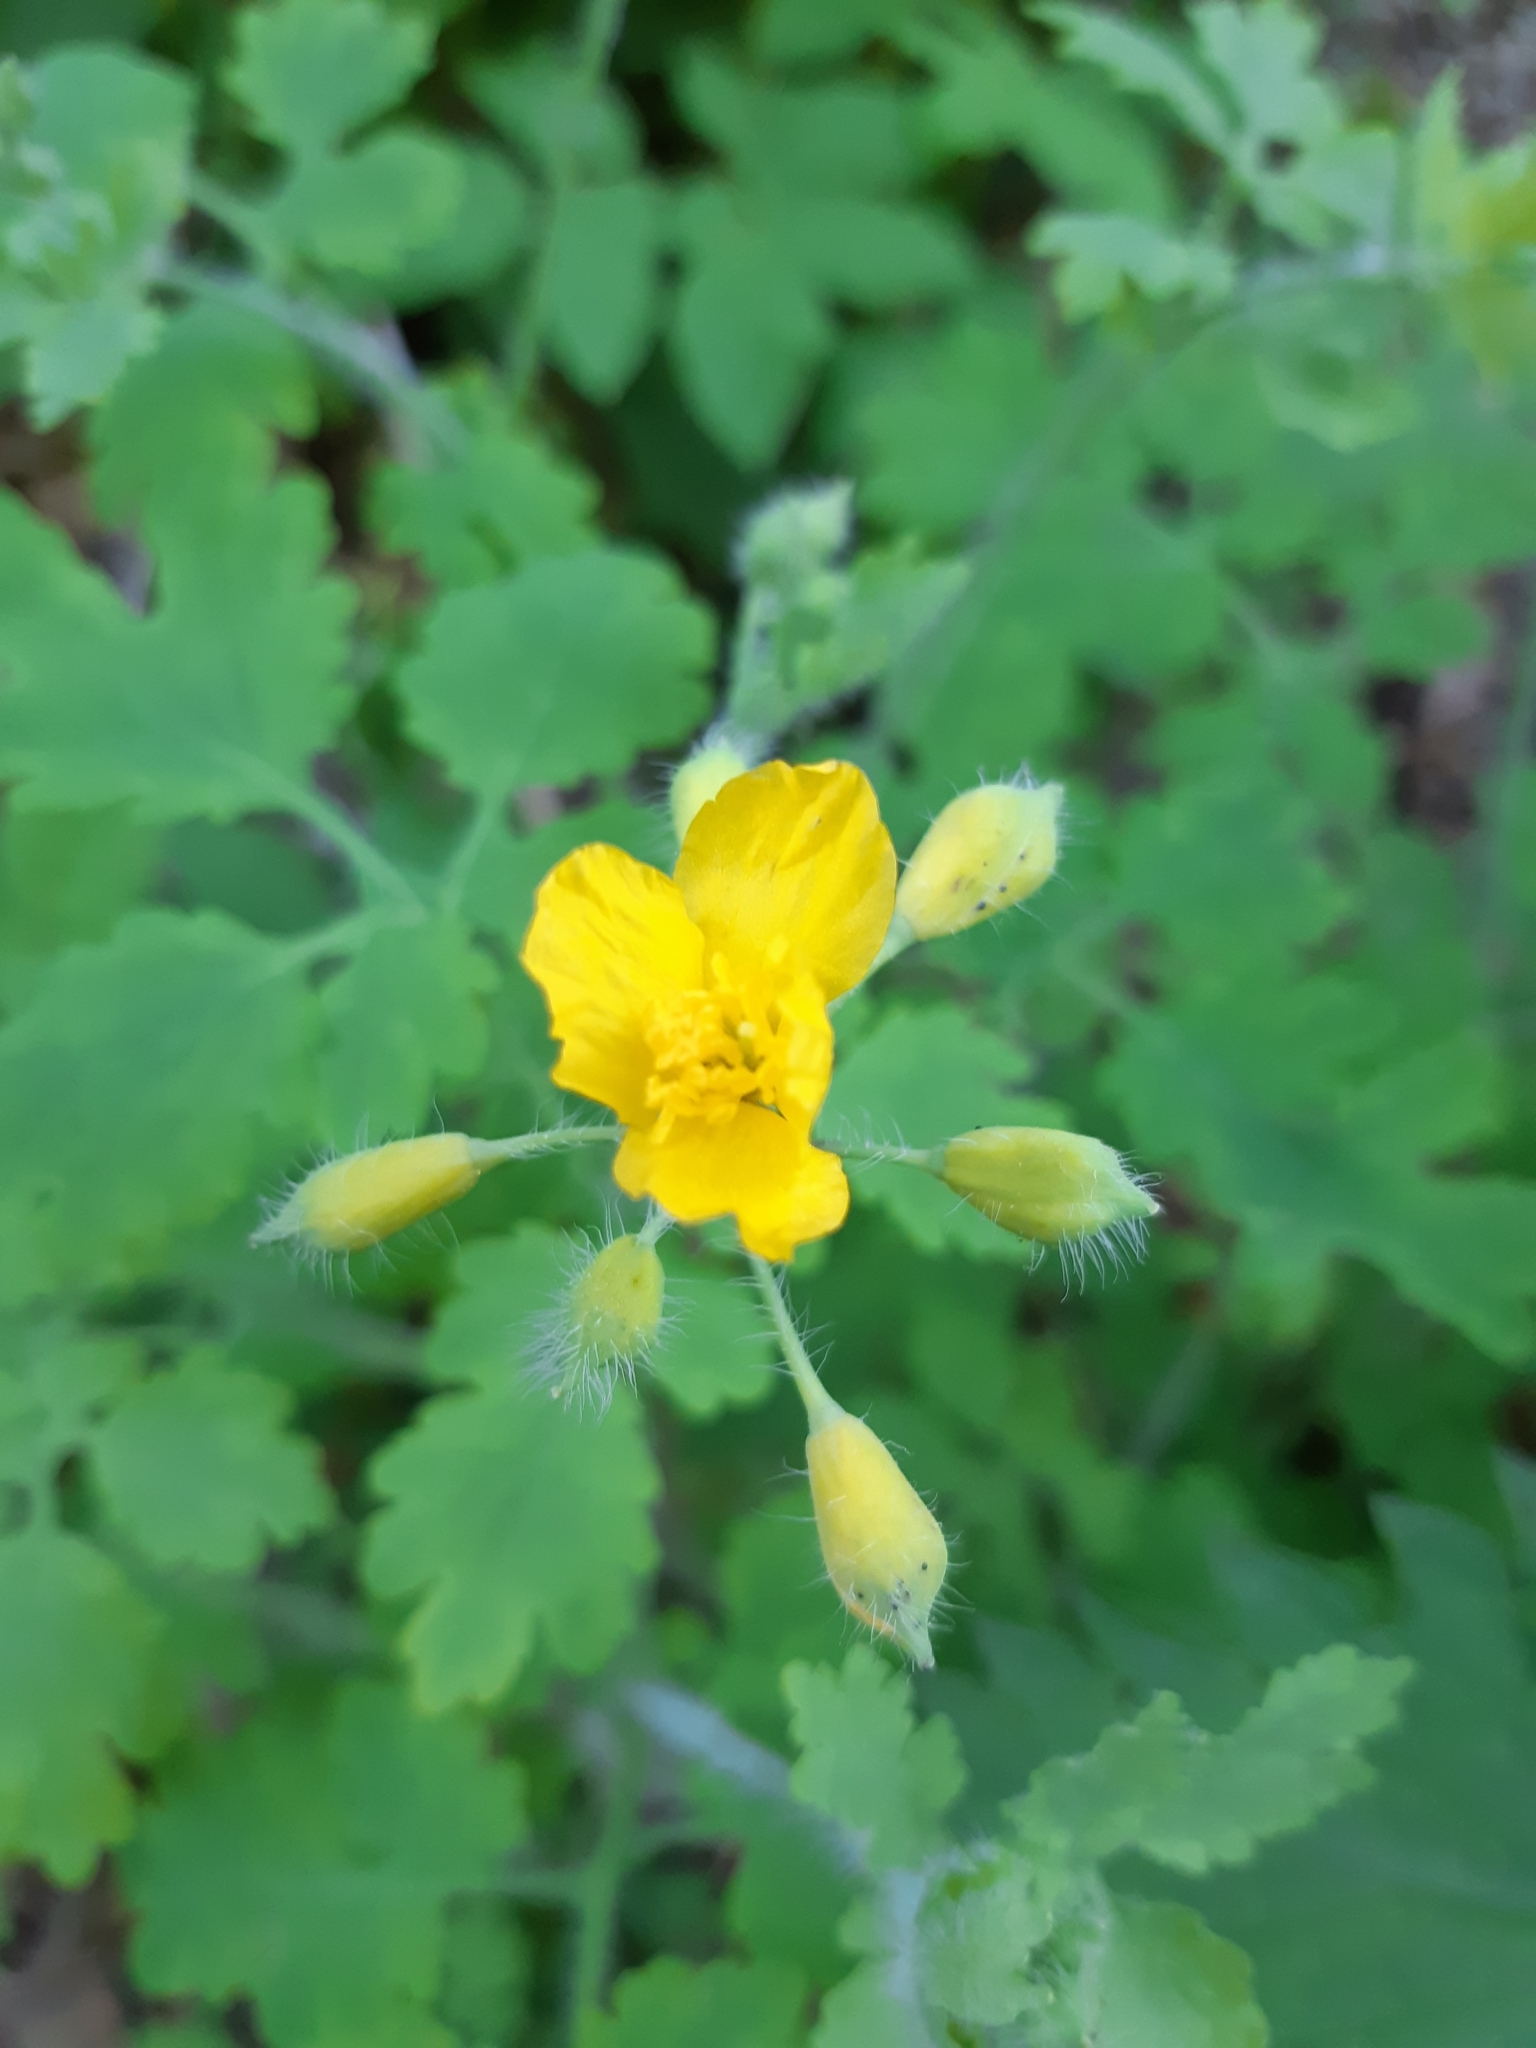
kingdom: Plantae
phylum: Tracheophyta
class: Magnoliopsida
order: Ranunculales
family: Papaveraceae
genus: Chelidonium
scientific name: Chelidonium majus
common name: Greater celandine
